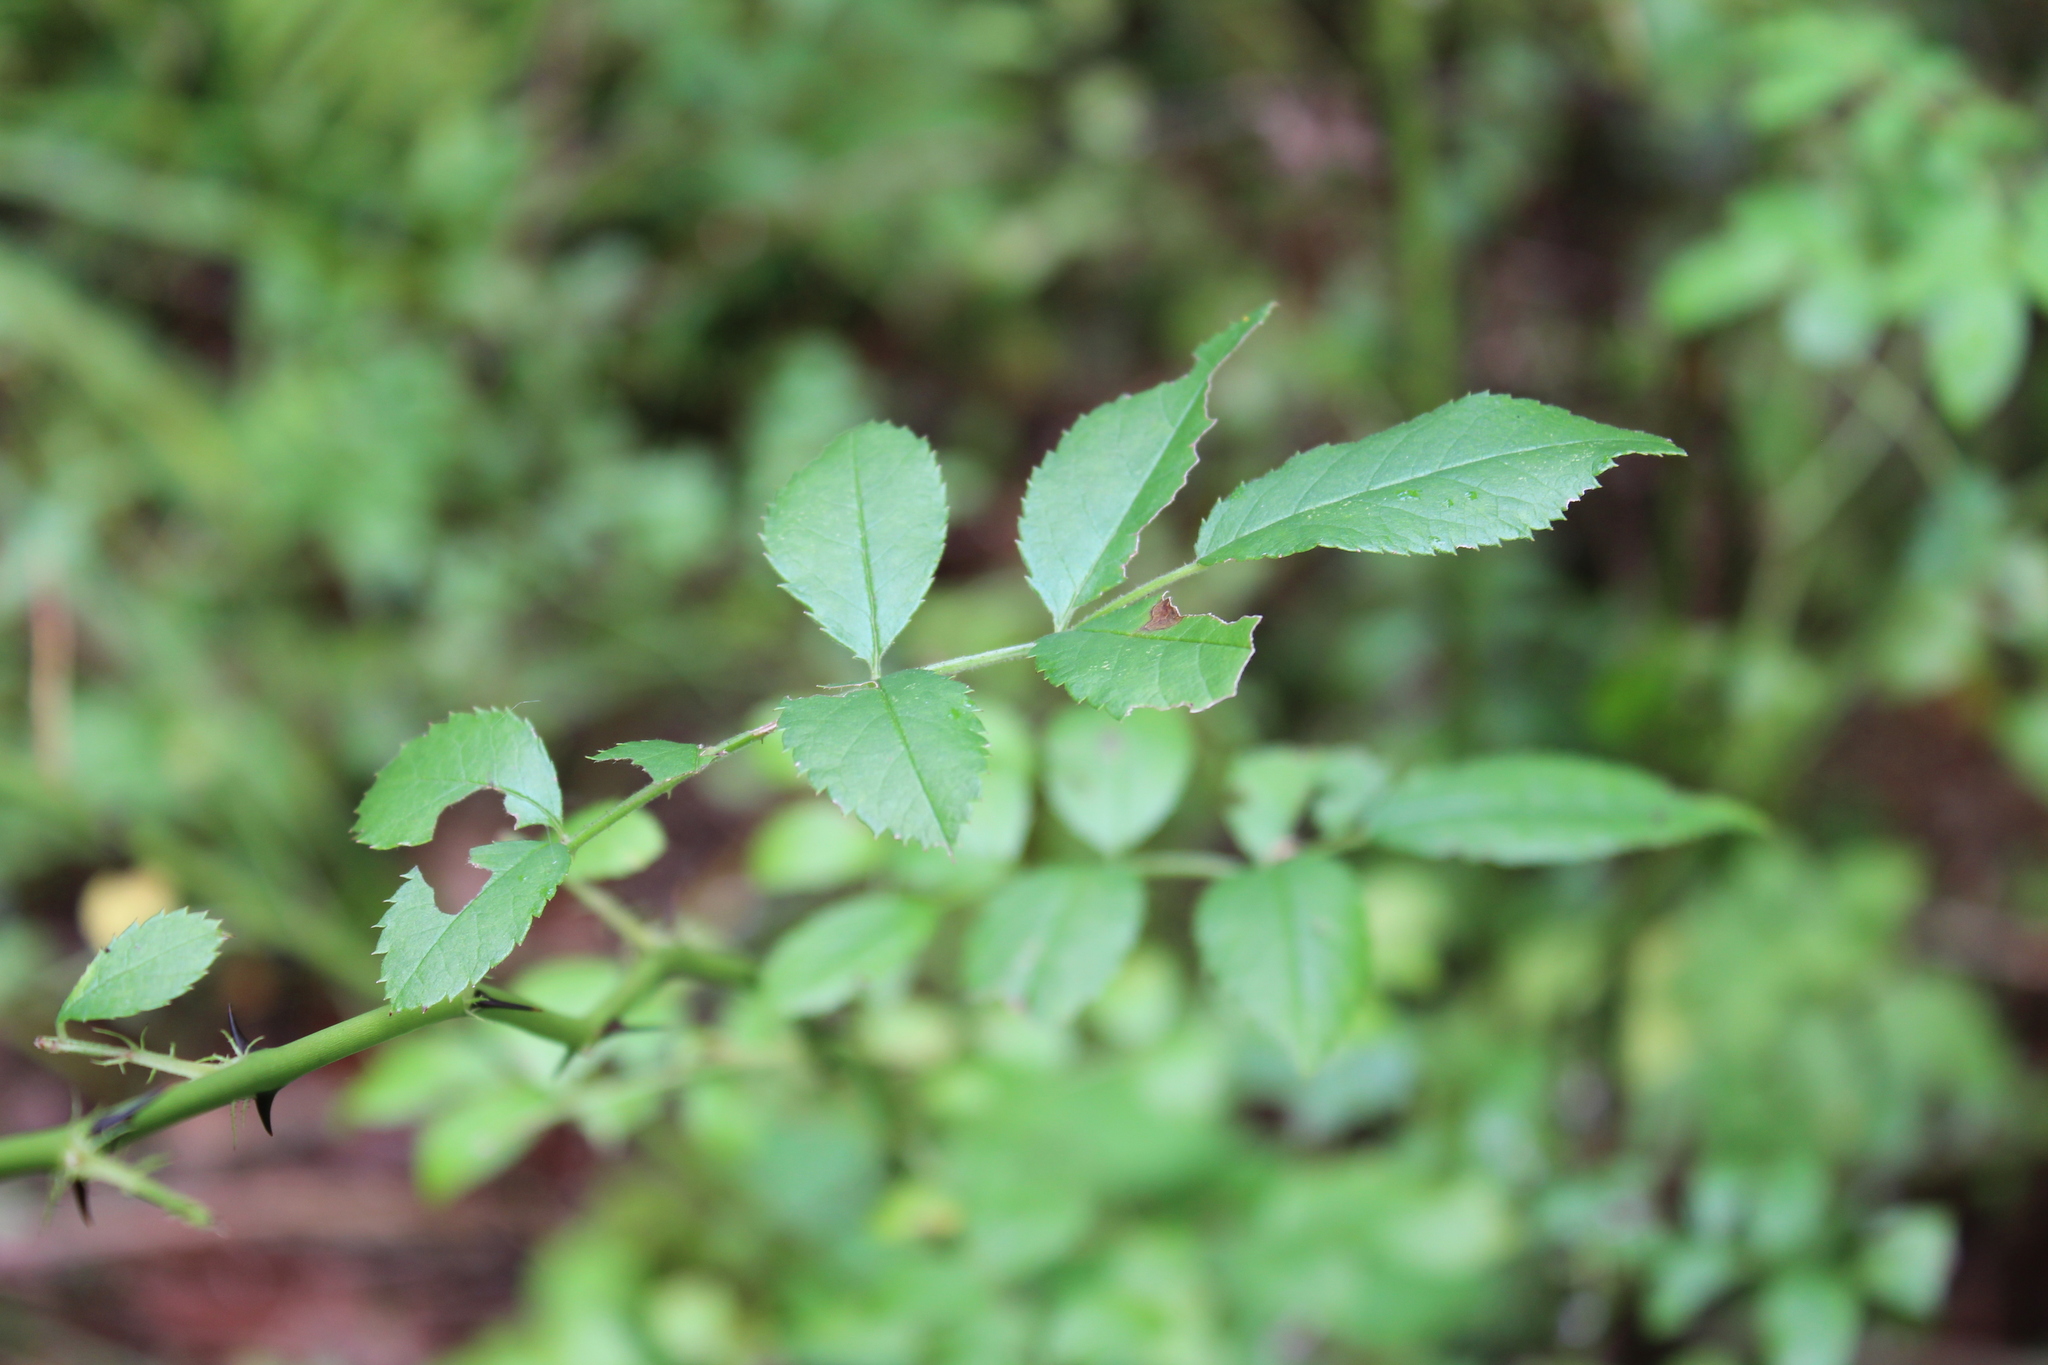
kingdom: Plantae
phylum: Tracheophyta
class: Magnoliopsida
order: Rosales
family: Rosaceae
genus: Rosa
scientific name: Rosa multiflora
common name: Multiflora rose
